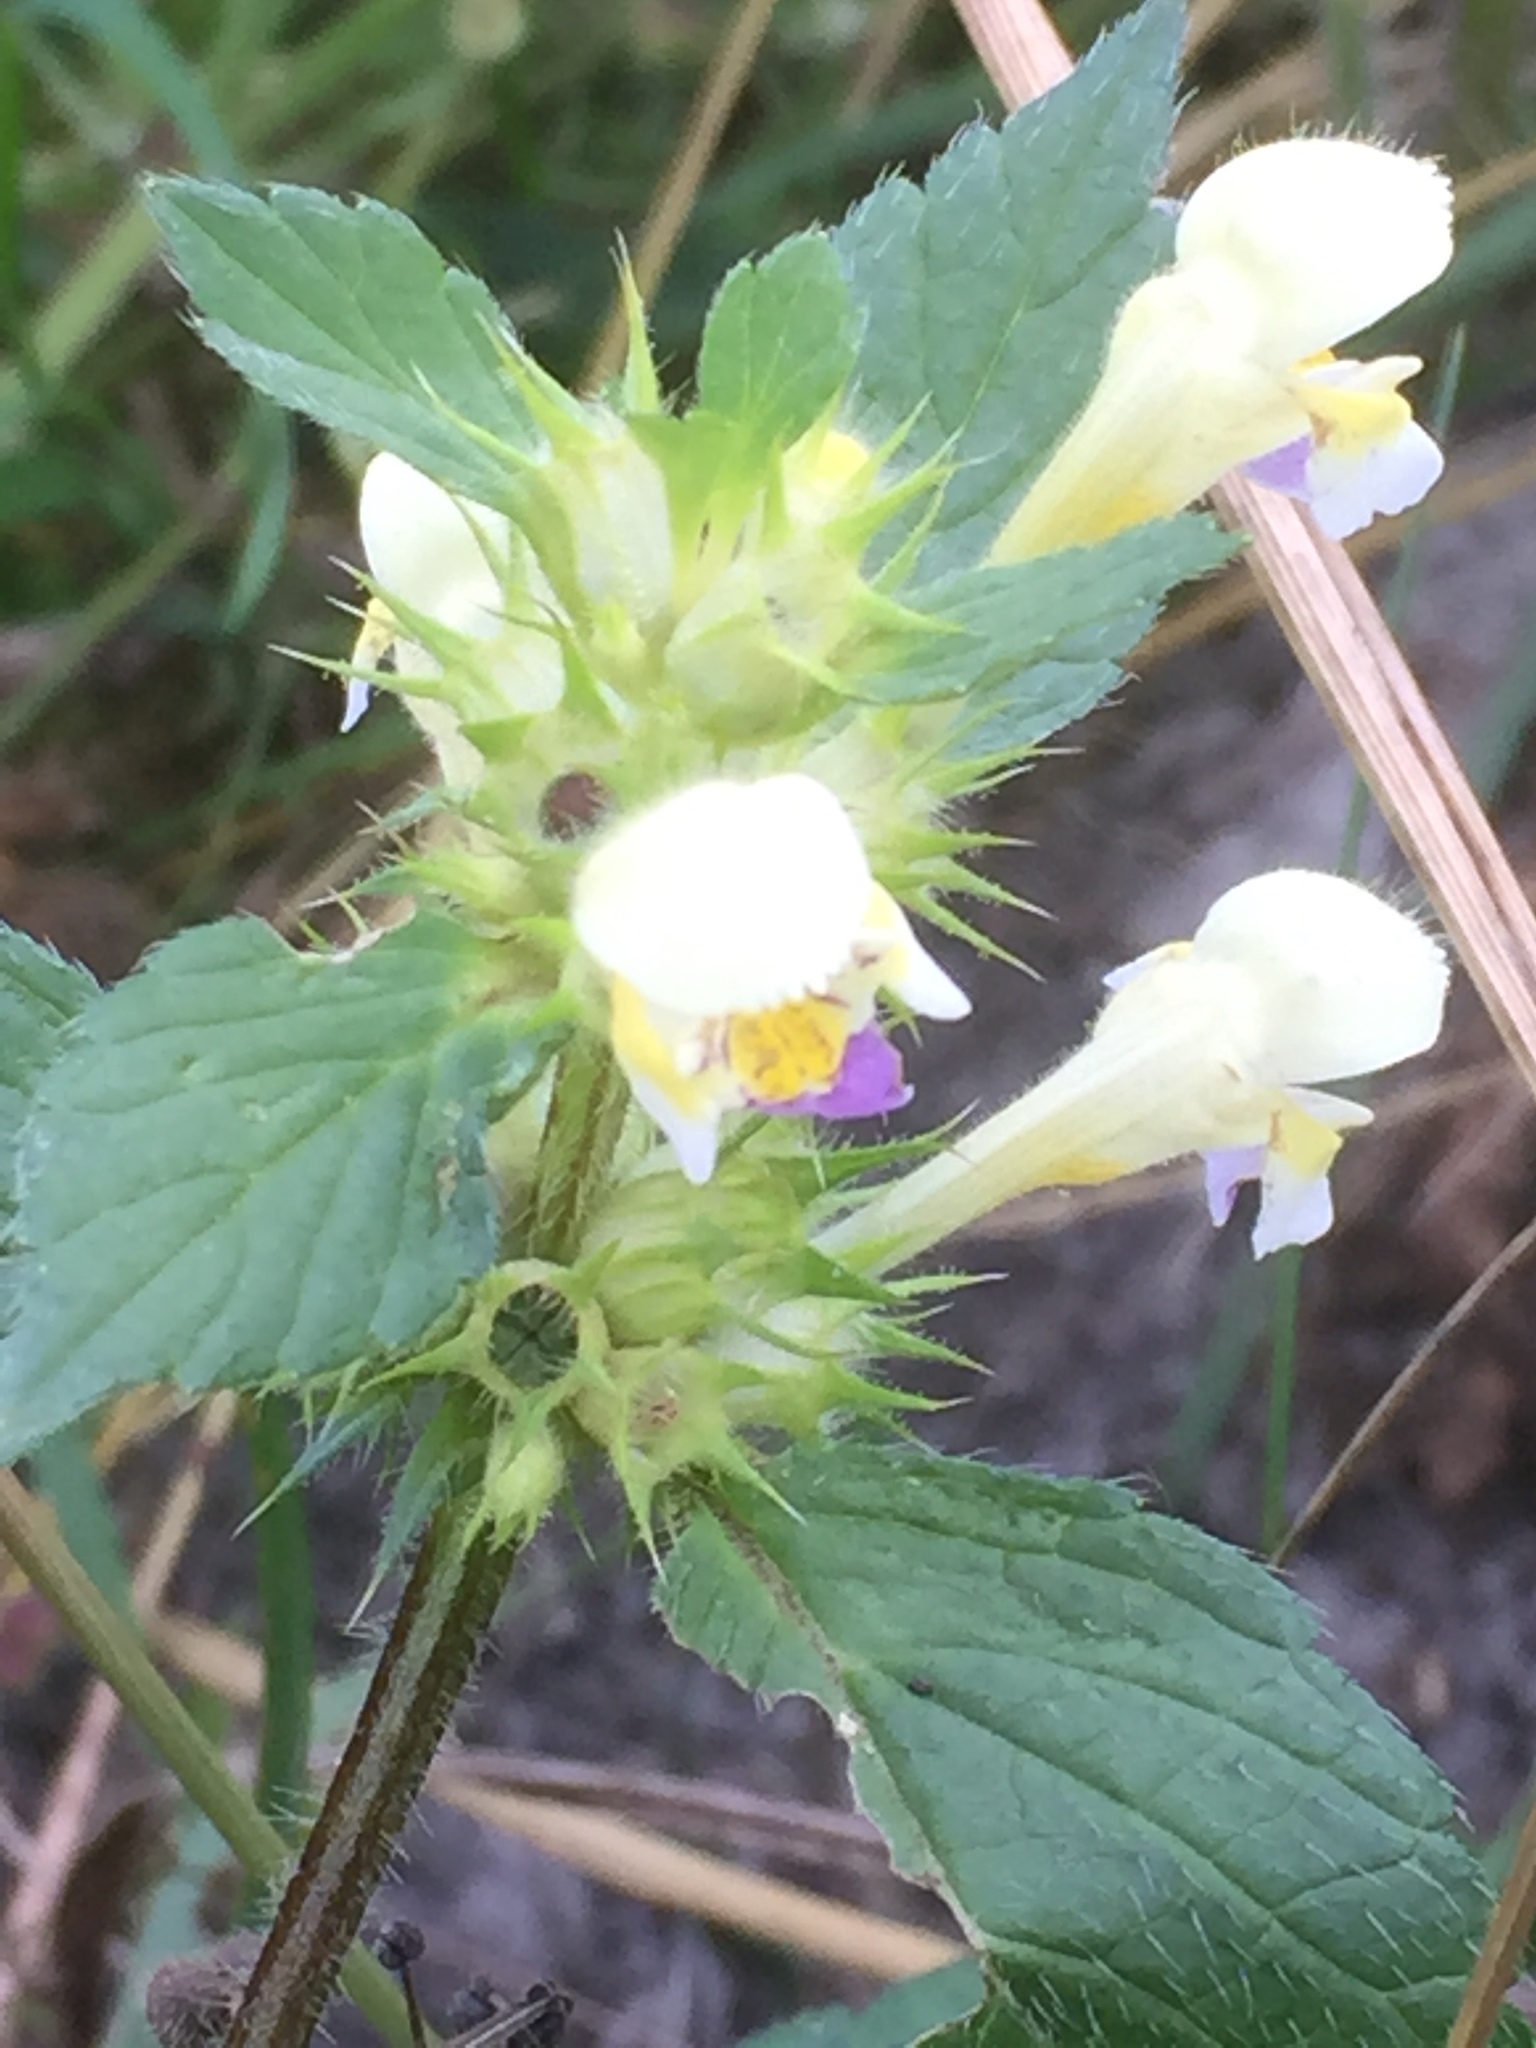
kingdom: Plantae
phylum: Tracheophyta
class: Magnoliopsida
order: Lamiales
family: Lamiaceae
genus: Galeopsis
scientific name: Galeopsis speciosa
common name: Large-flowered hemp-nettle
